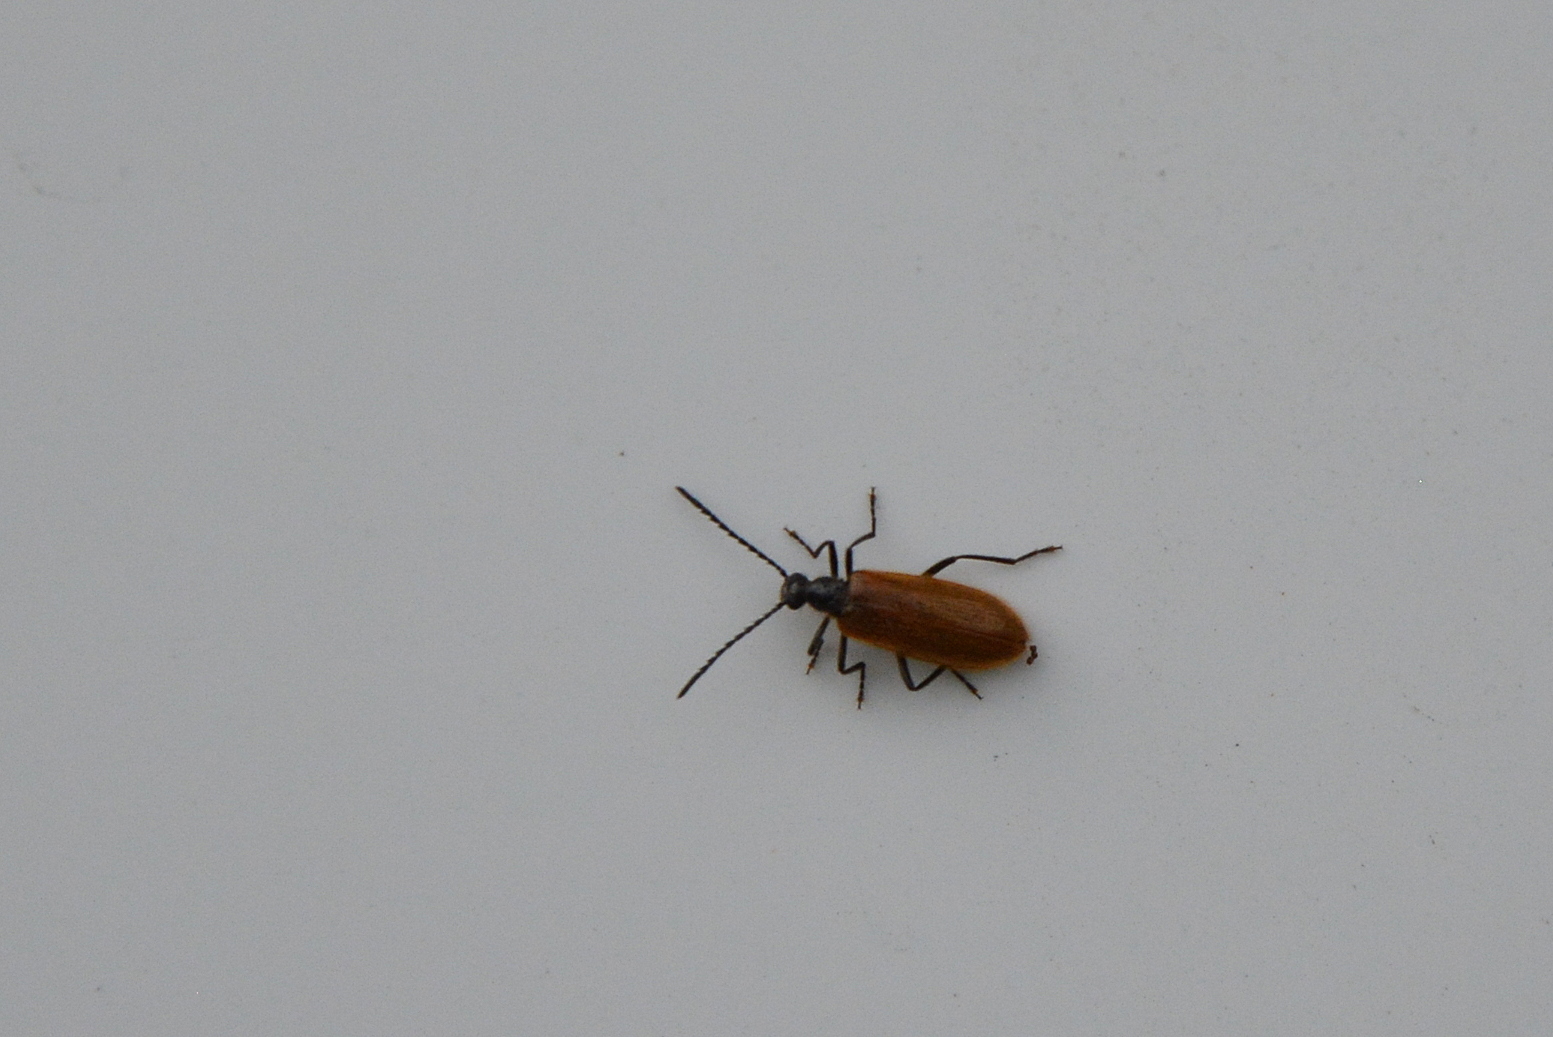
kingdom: Animalia
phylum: Arthropoda
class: Insecta
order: Coleoptera
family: Tenebrionidae
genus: Lagria
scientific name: Lagria hirta
